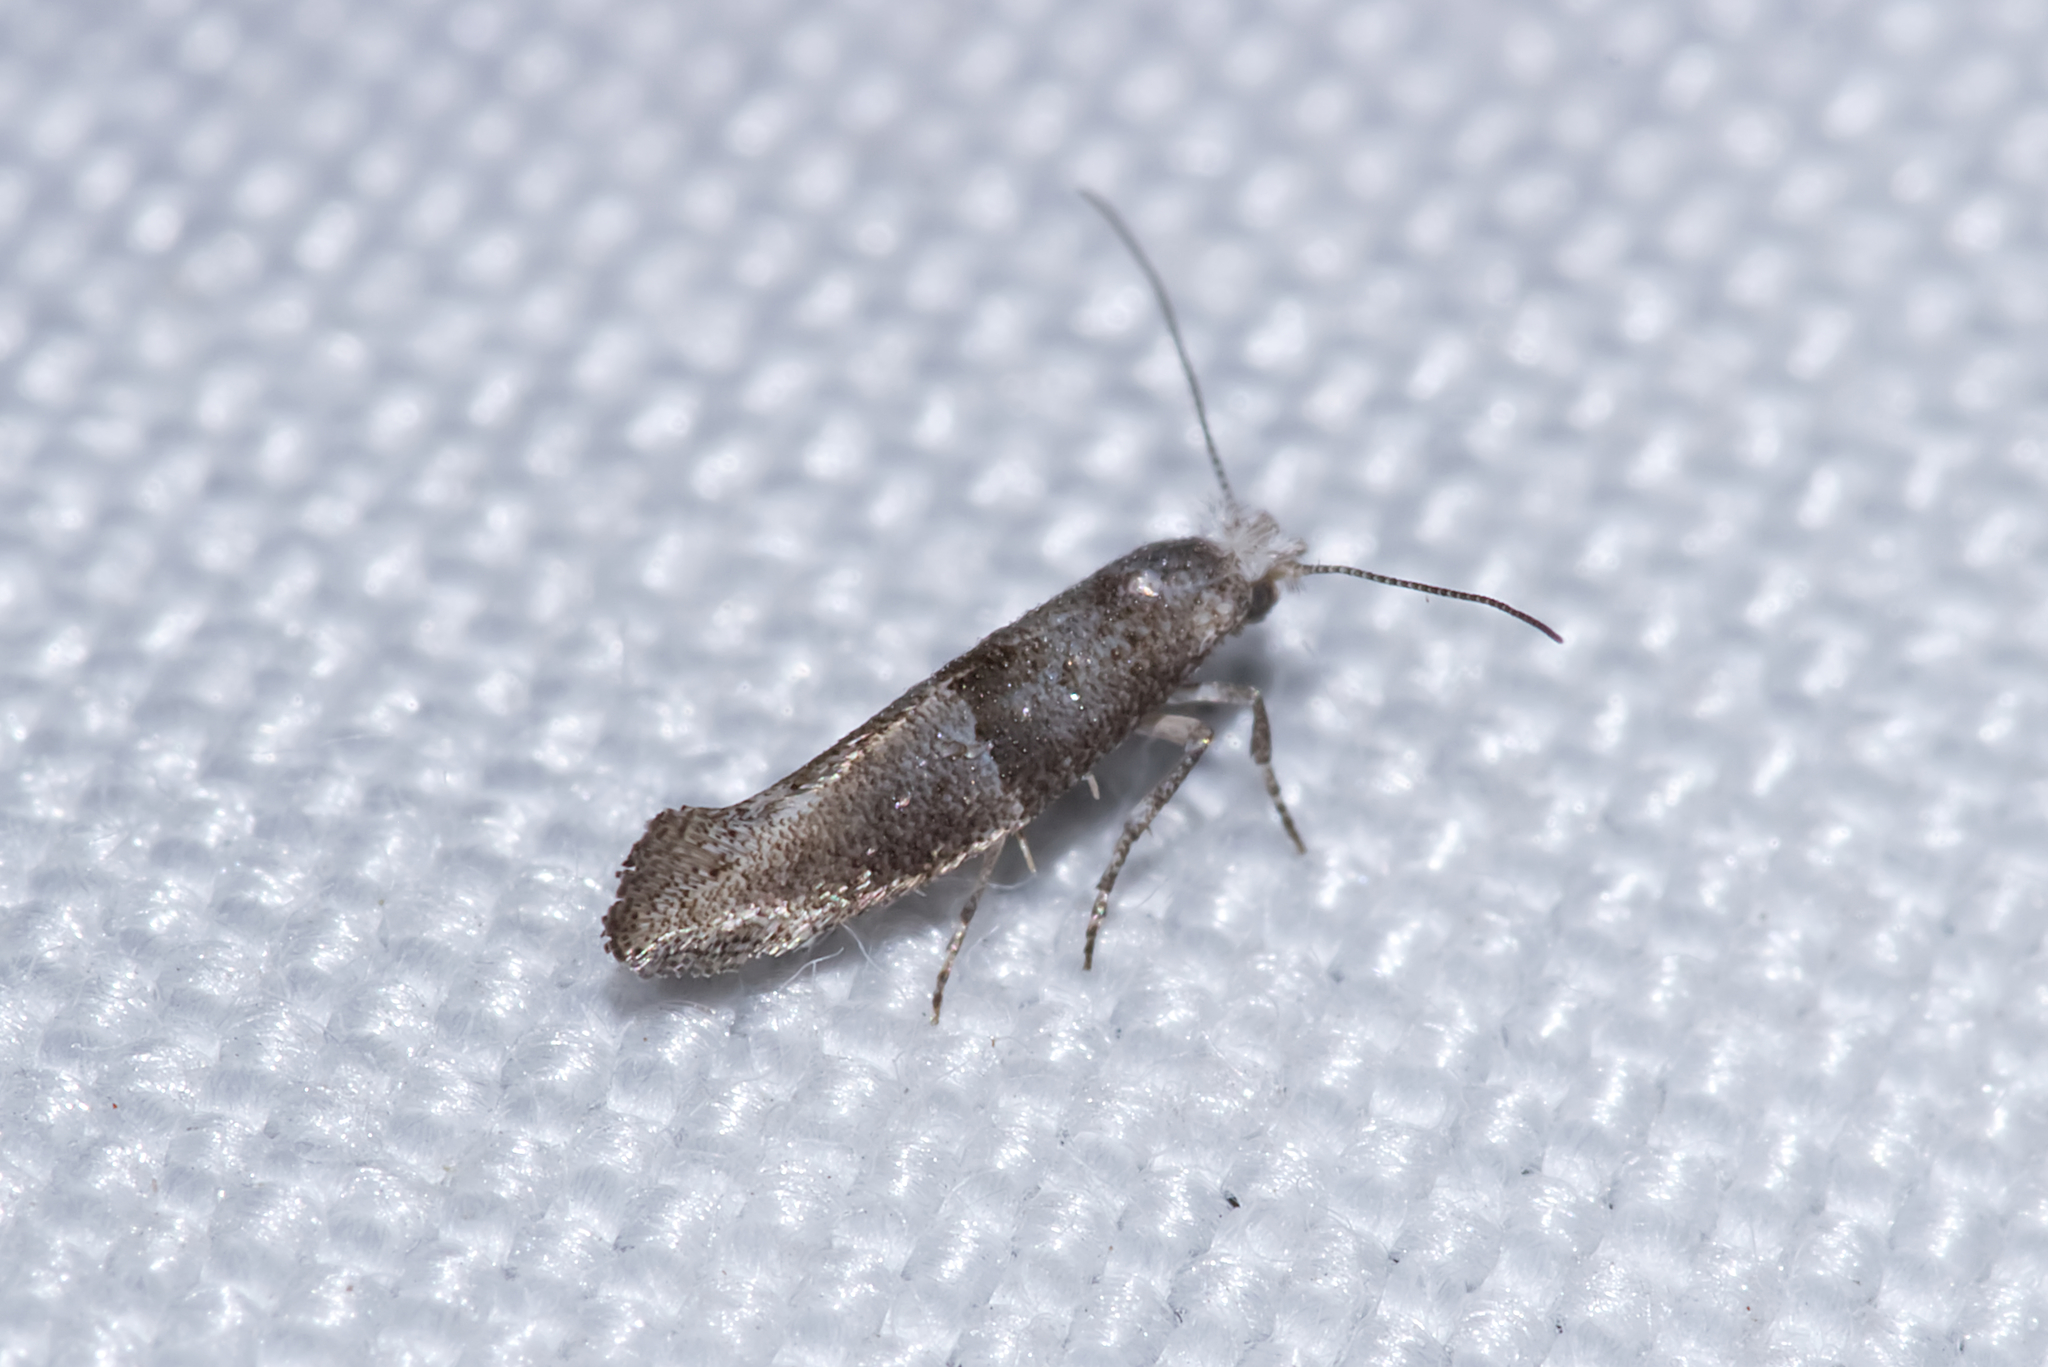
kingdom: Animalia
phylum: Arthropoda
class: Insecta
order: Lepidoptera
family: Yponomeutidae
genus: Cedestis
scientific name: Cedestis subfasciella
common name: Brown pine ermel
